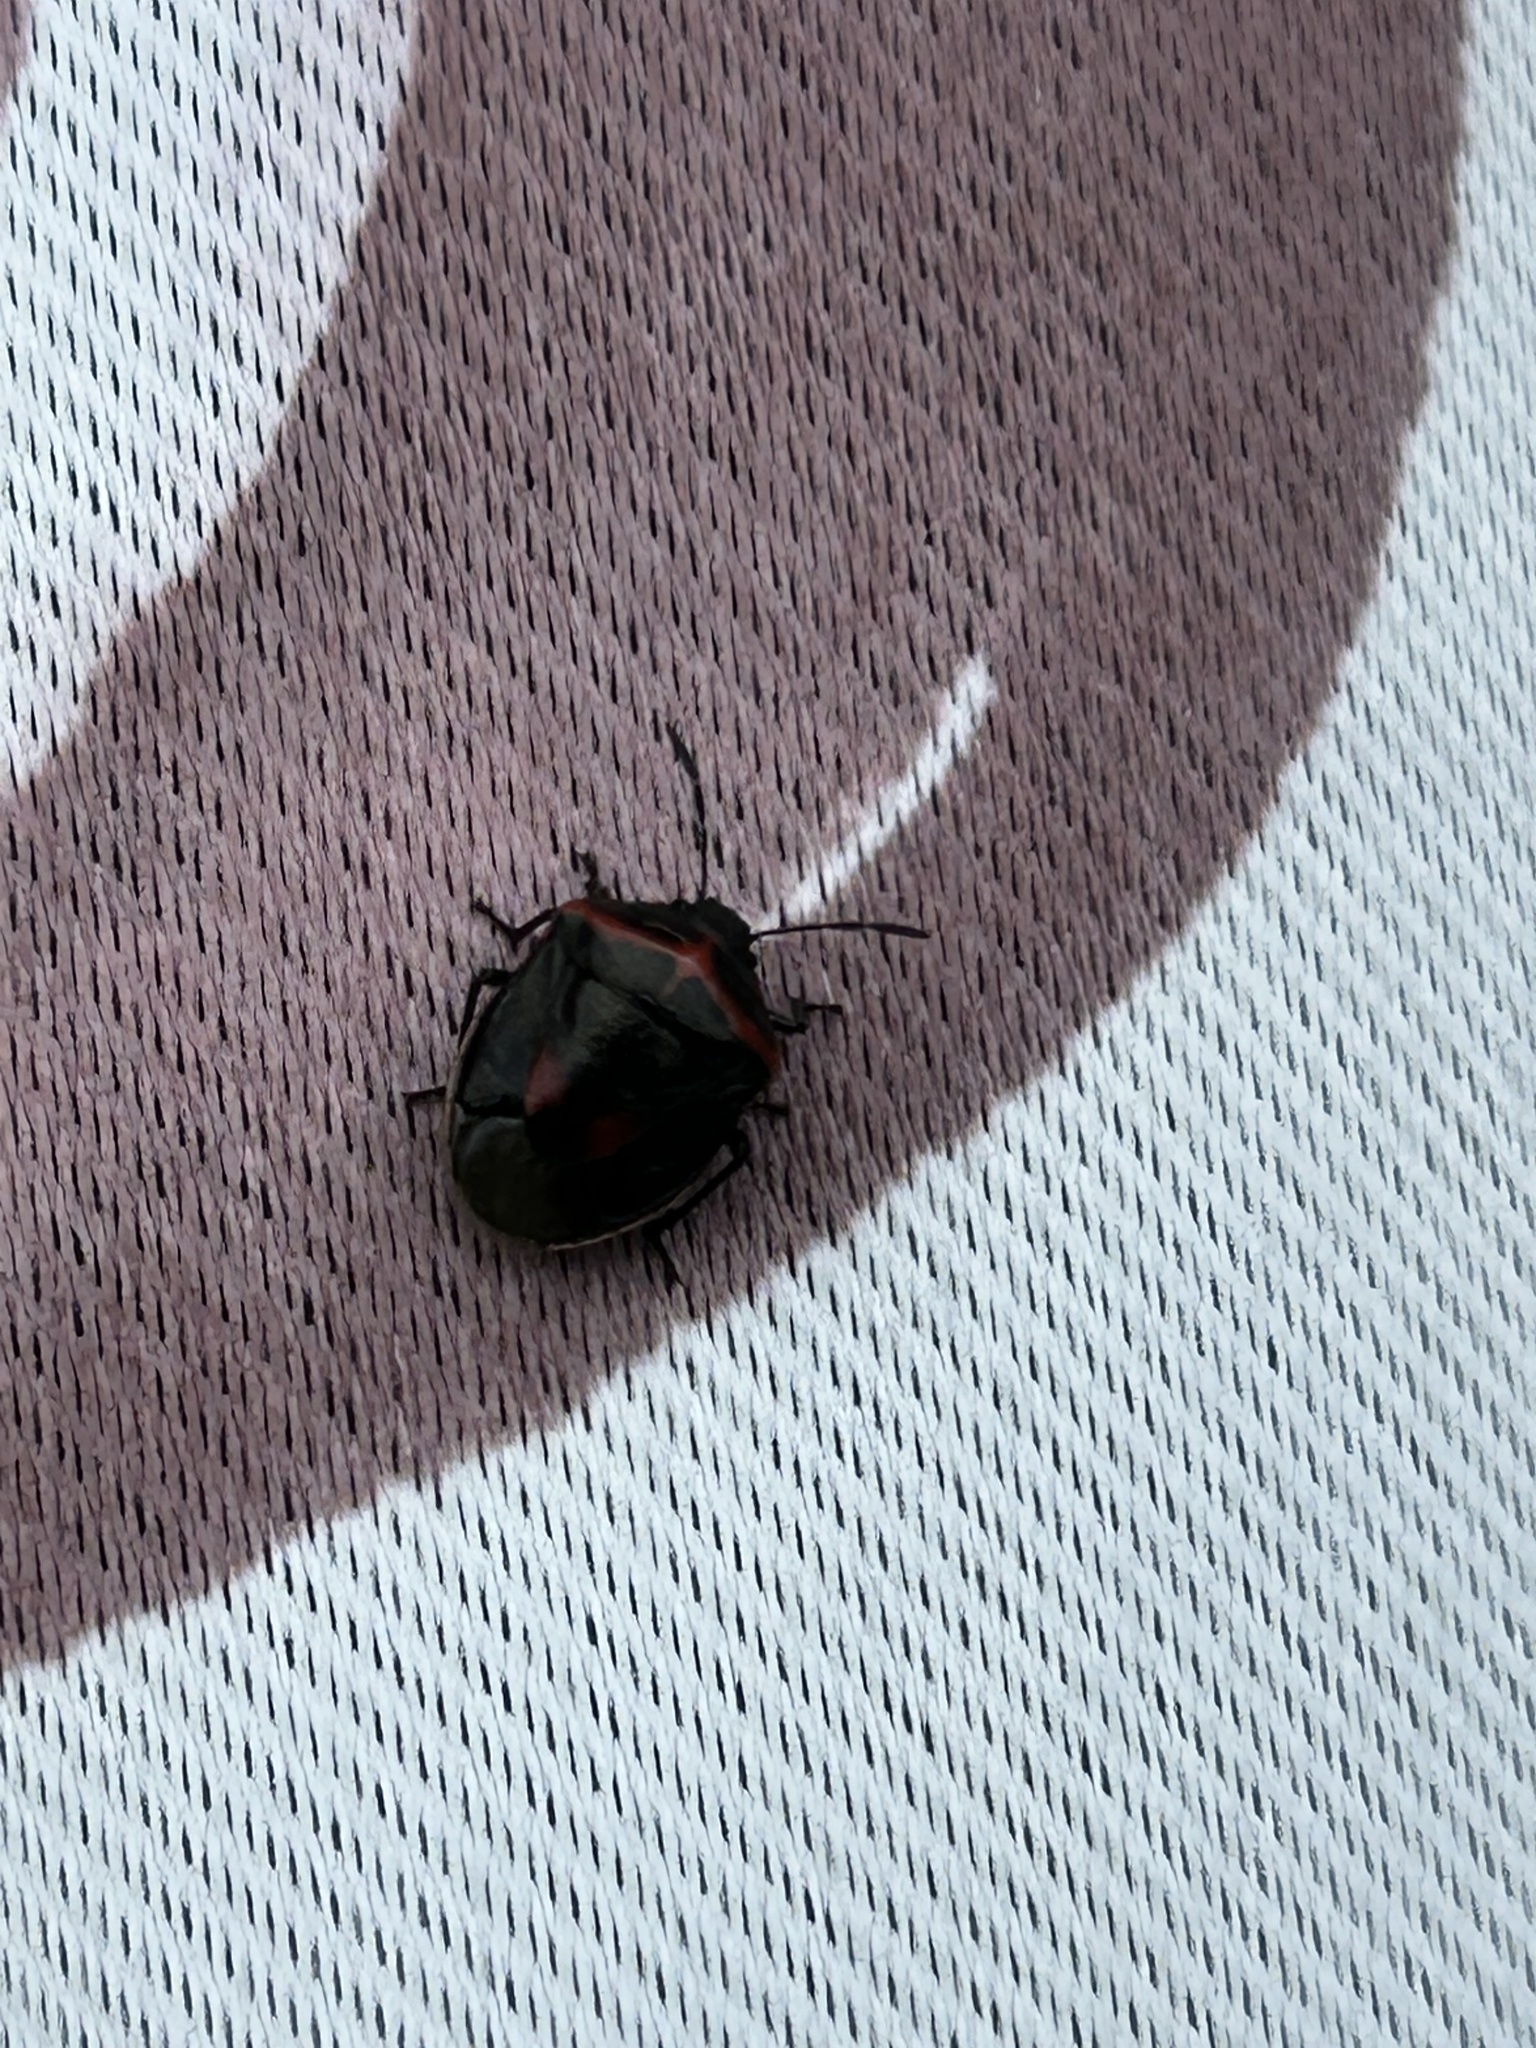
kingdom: Animalia
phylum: Arthropoda
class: Insecta
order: Hemiptera
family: Pentatomidae
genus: Cosmopepla
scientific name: Cosmopepla lintneriana
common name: Twice-stabbed stink bug
